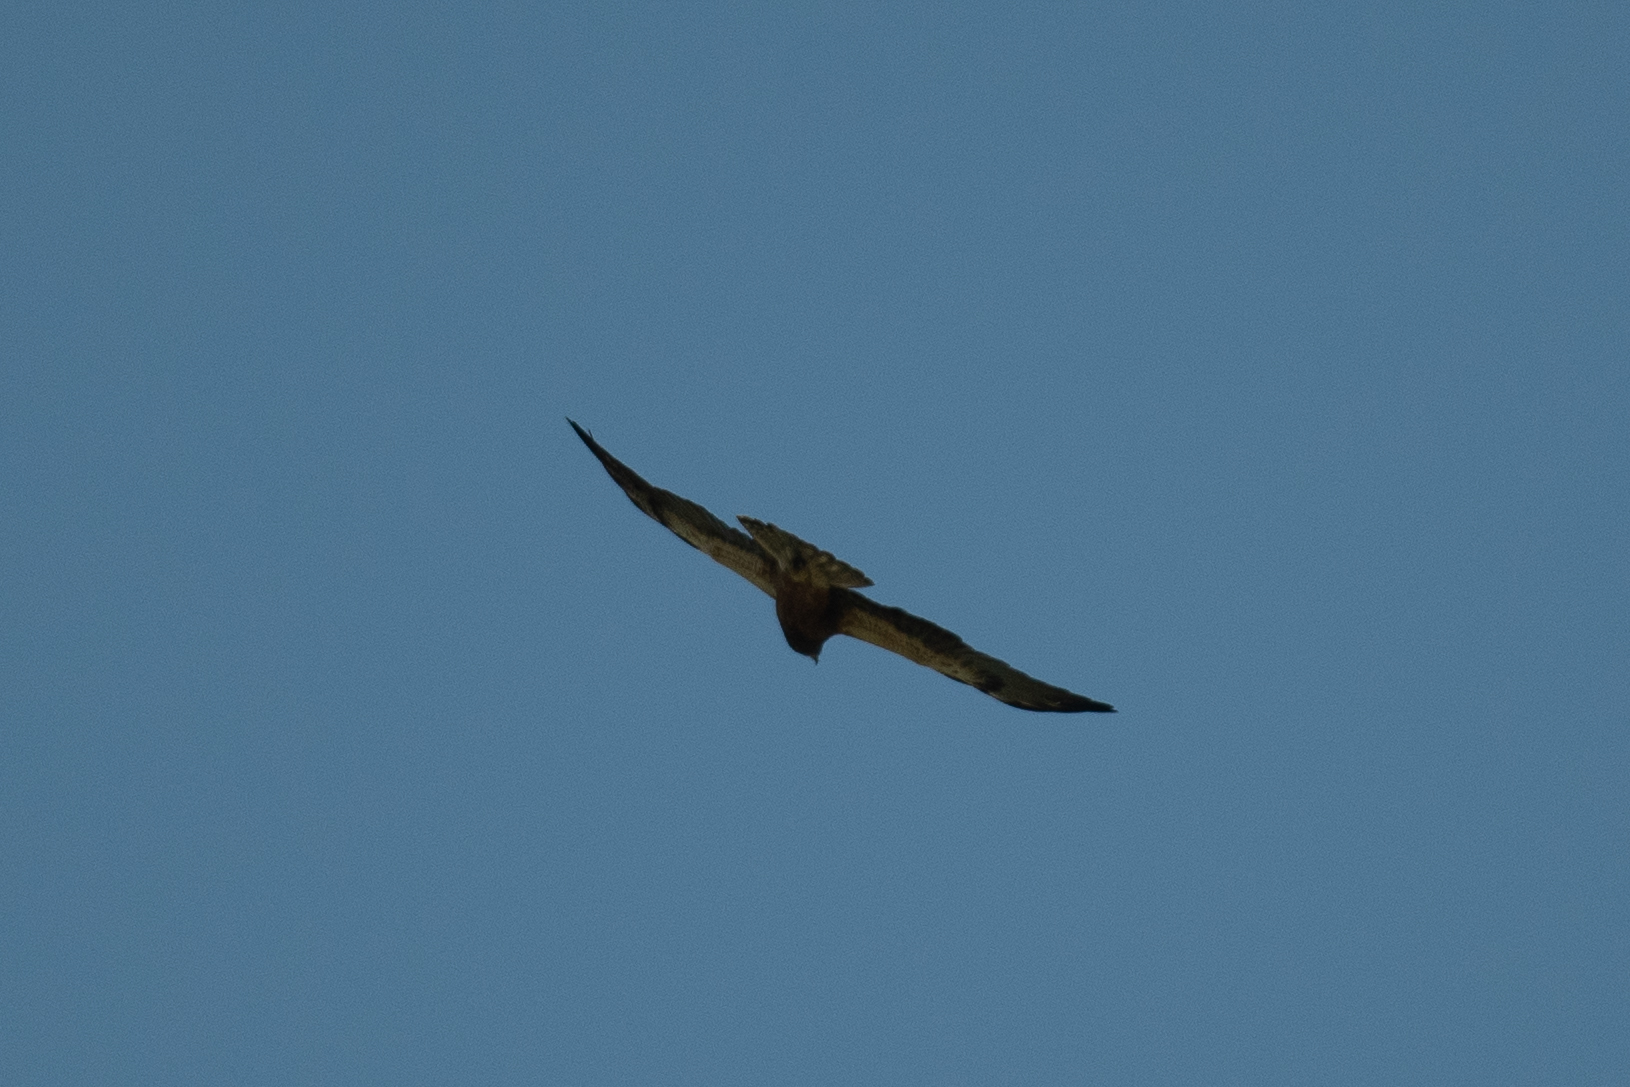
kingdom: Animalia
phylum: Chordata
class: Aves
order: Accipitriformes
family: Accipitridae
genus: Buteo
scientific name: Buteo swainsoni
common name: Swainson's hawk
